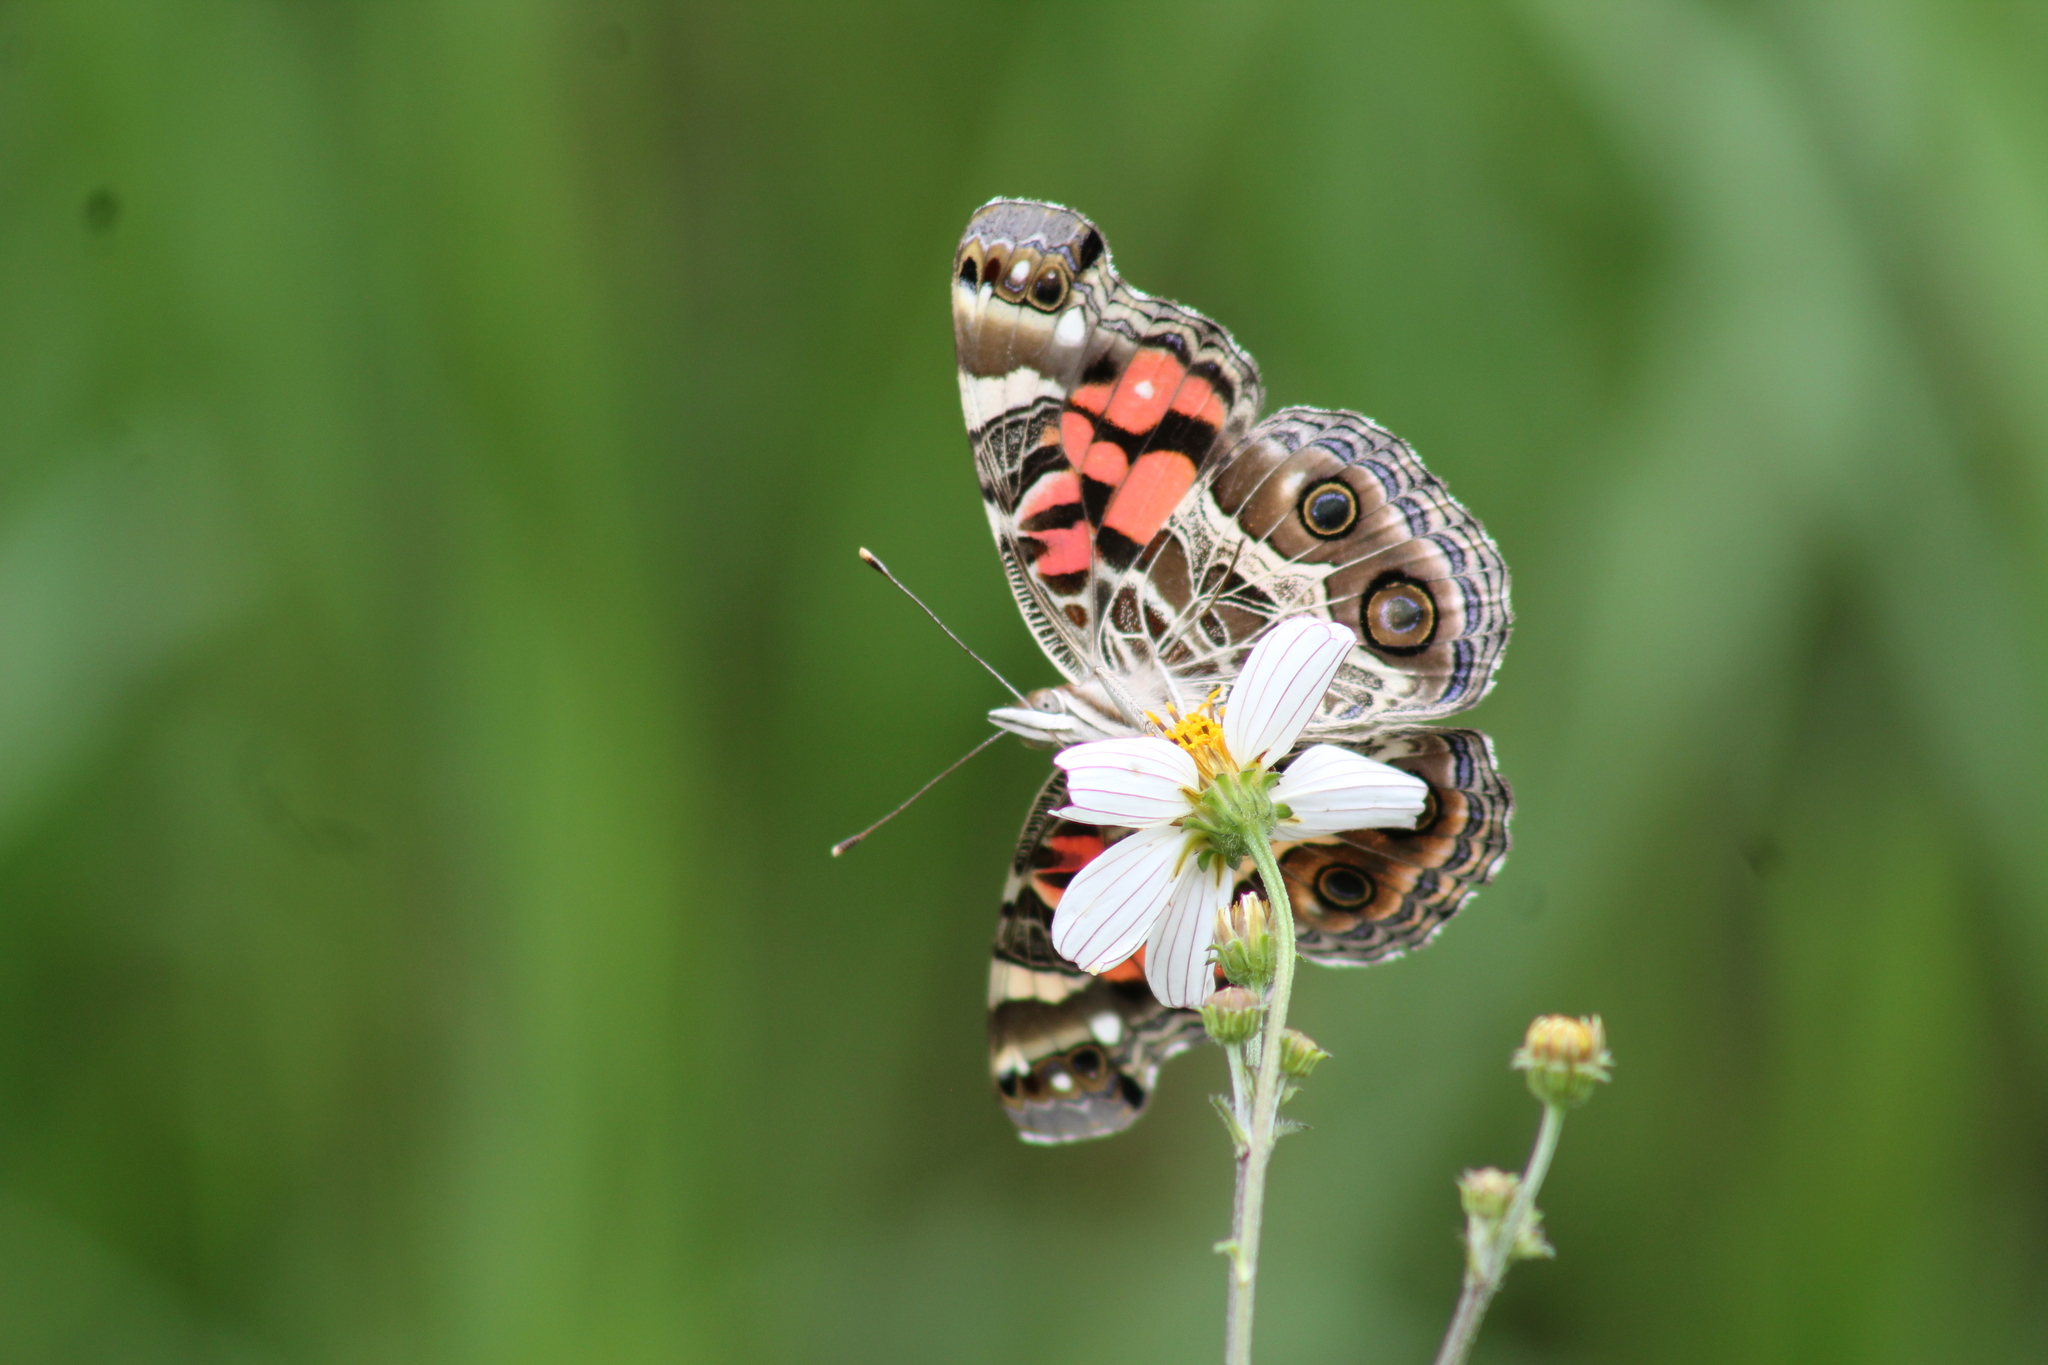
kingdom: Animalia
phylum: Arthropoda
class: Insecta
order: Lepidoptera
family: Nymphalidae
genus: Vanessa
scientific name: Vanessa virginiensis
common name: American lady
